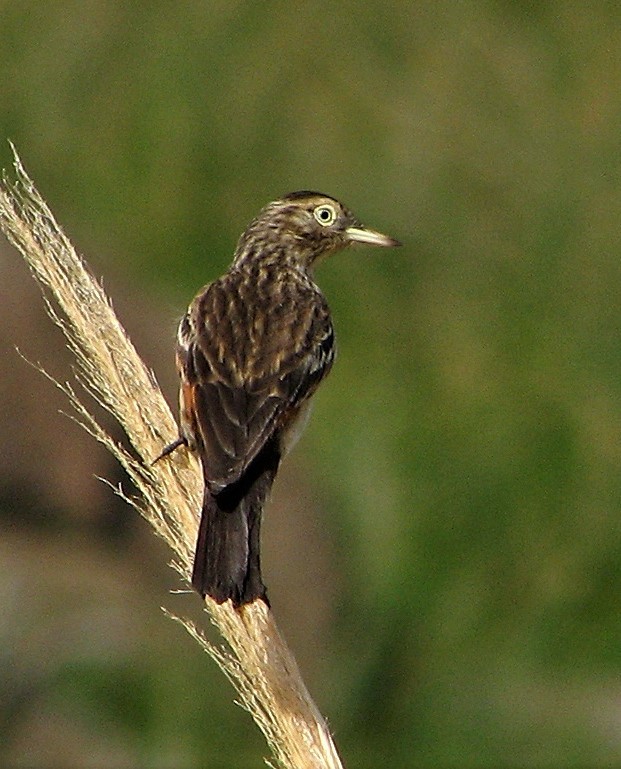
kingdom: Animalia
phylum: Chordata
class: Aves
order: Passeriformes
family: Tyrannidae
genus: Hymenops
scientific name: Hymenops perspicillatus
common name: Spectacled tyrant
